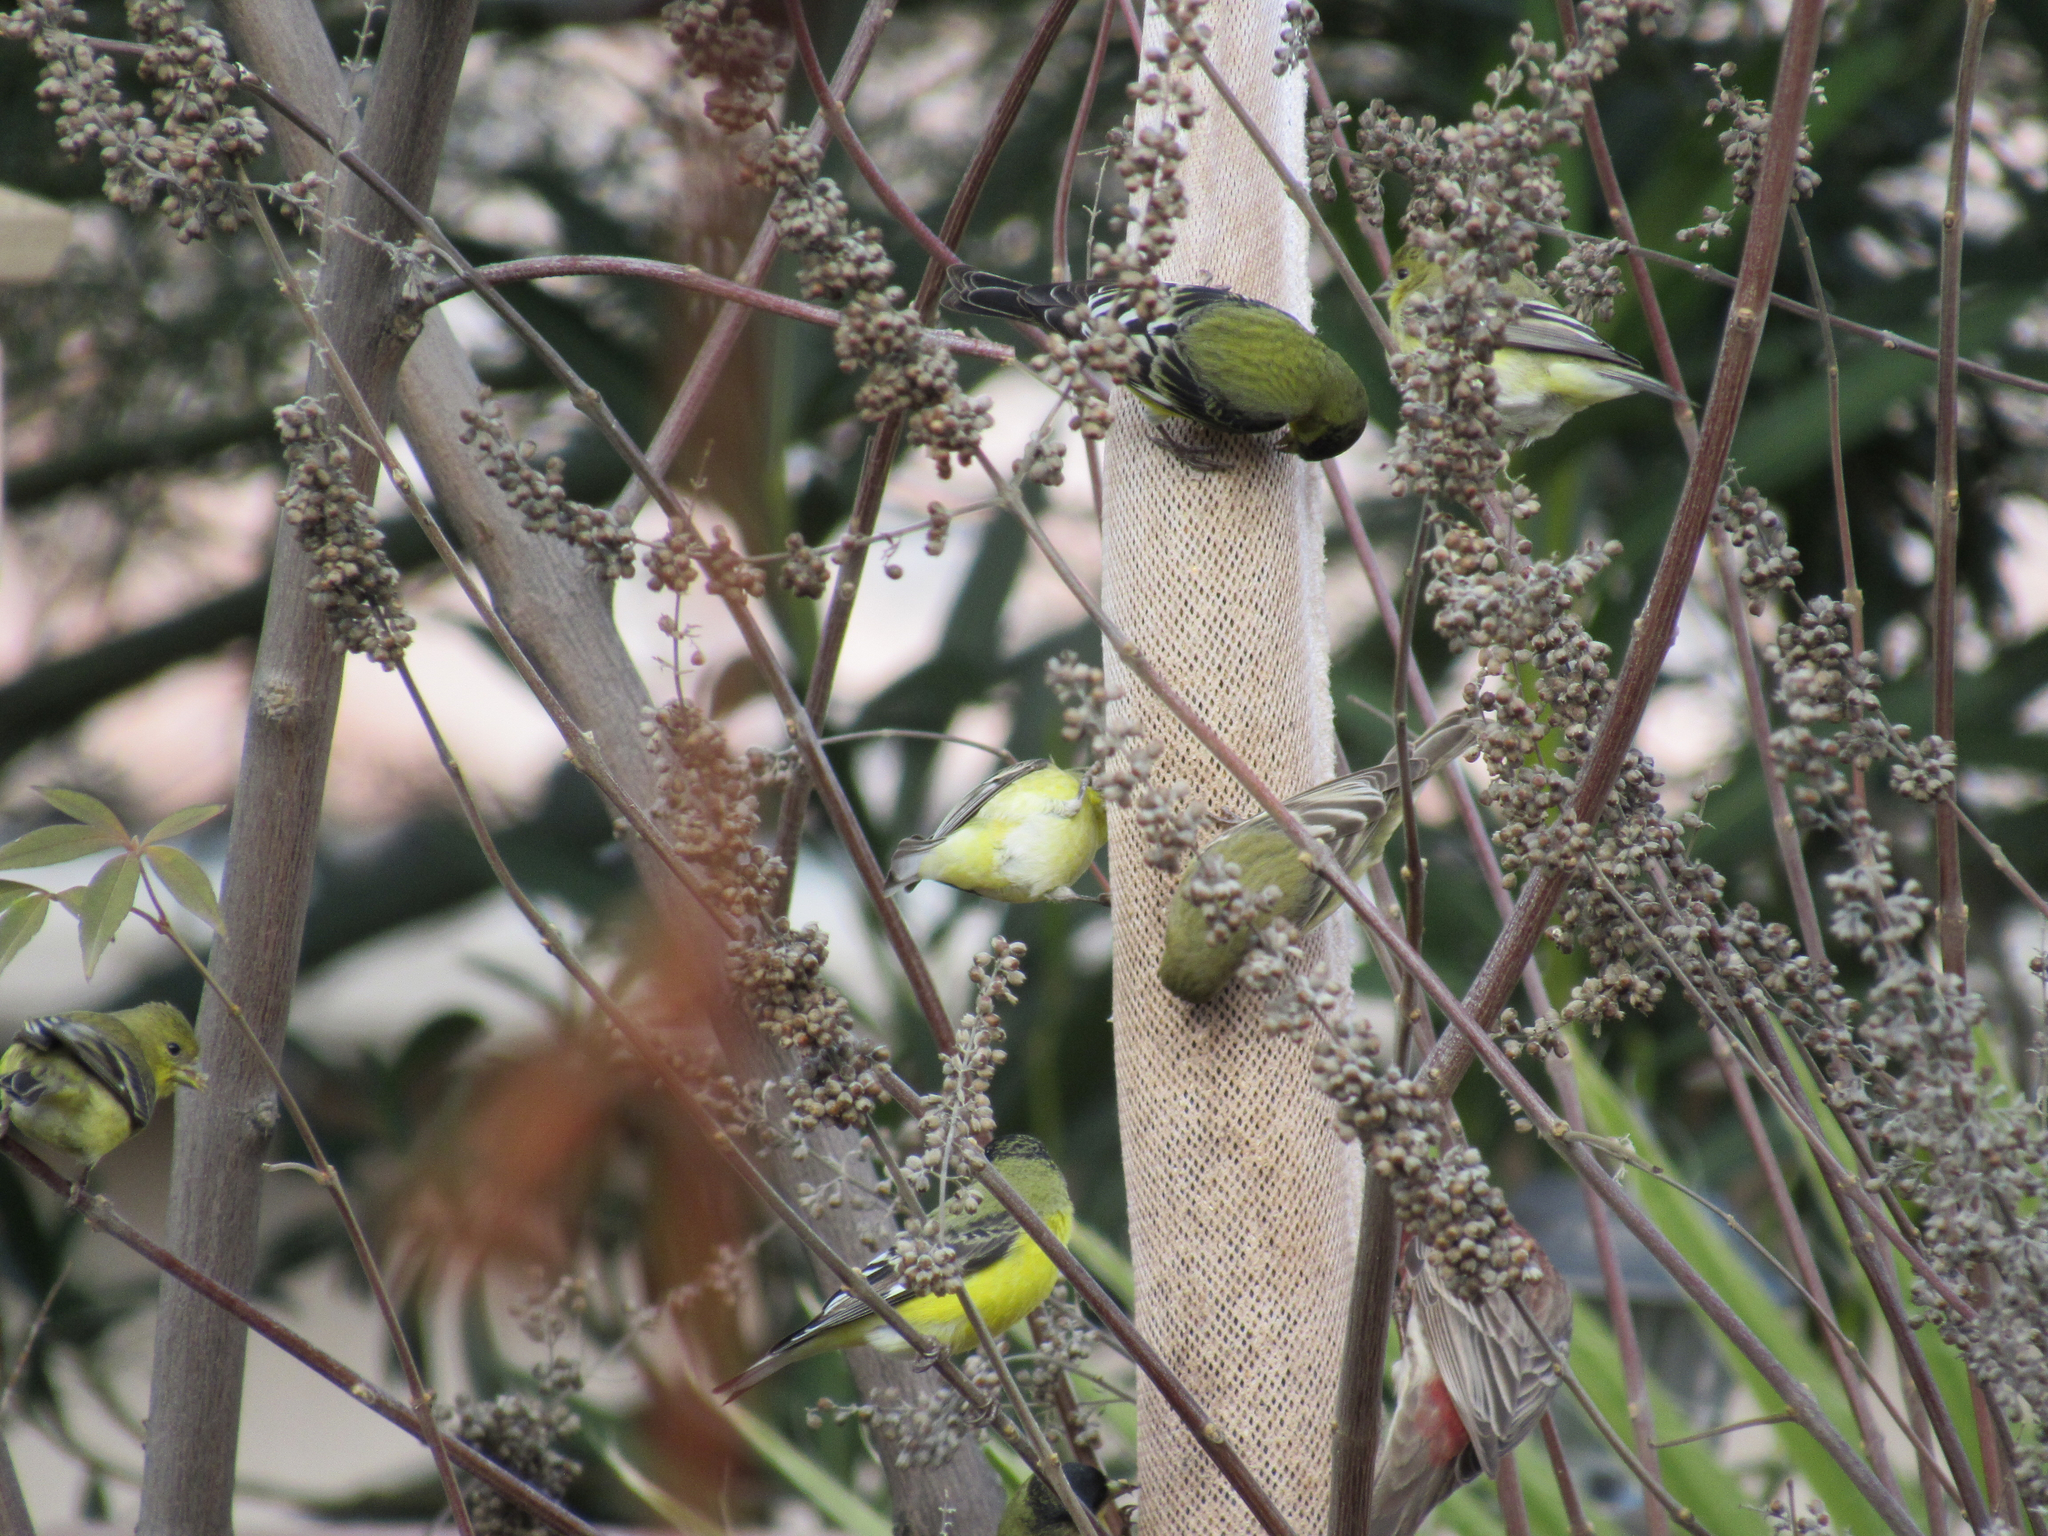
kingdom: Animalia
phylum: Chordata
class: Aves
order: Passeriformes
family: Fringillidae
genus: Spinus
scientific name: Spinus psaltria
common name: Lesser goldfinch
